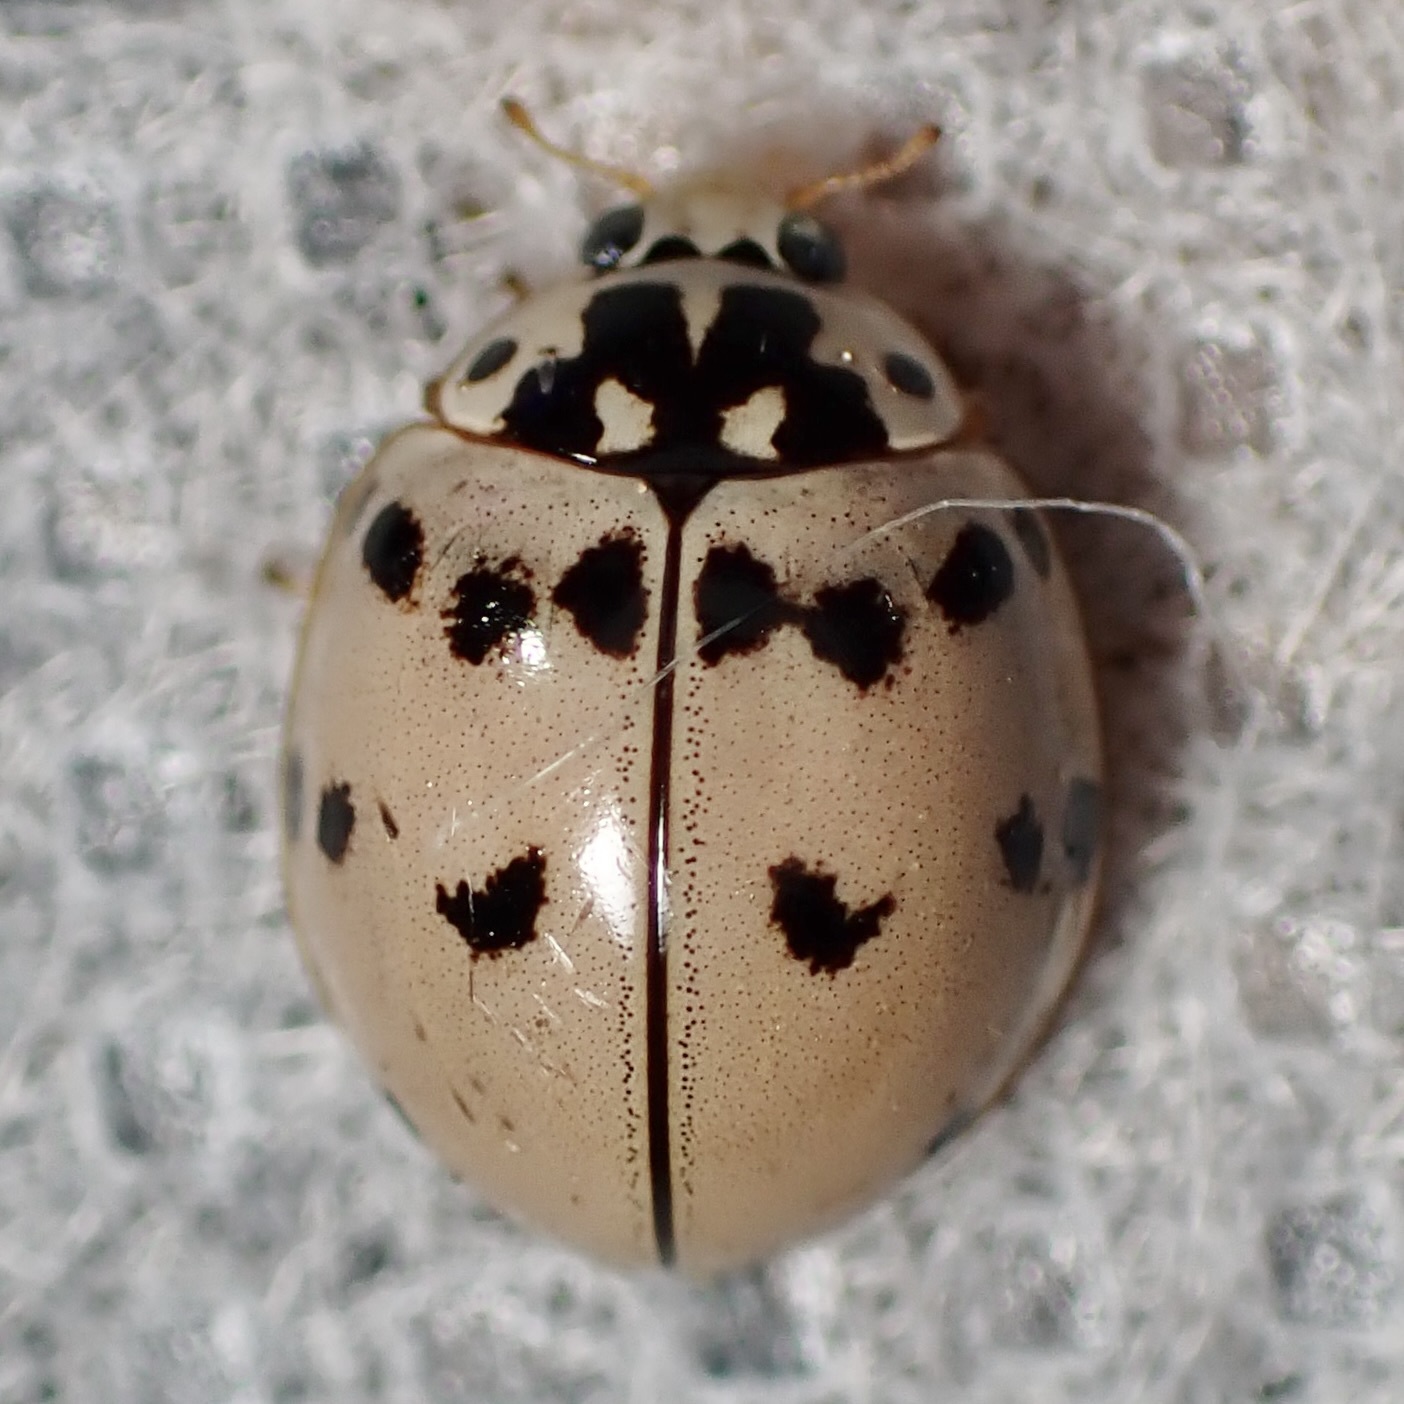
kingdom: Animalia
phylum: Arthropoda
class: Insecta
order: Coleoptera
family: Coccinellidae
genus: Olla
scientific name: Olla v-nigrum
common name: Ashy gray lady beetle
